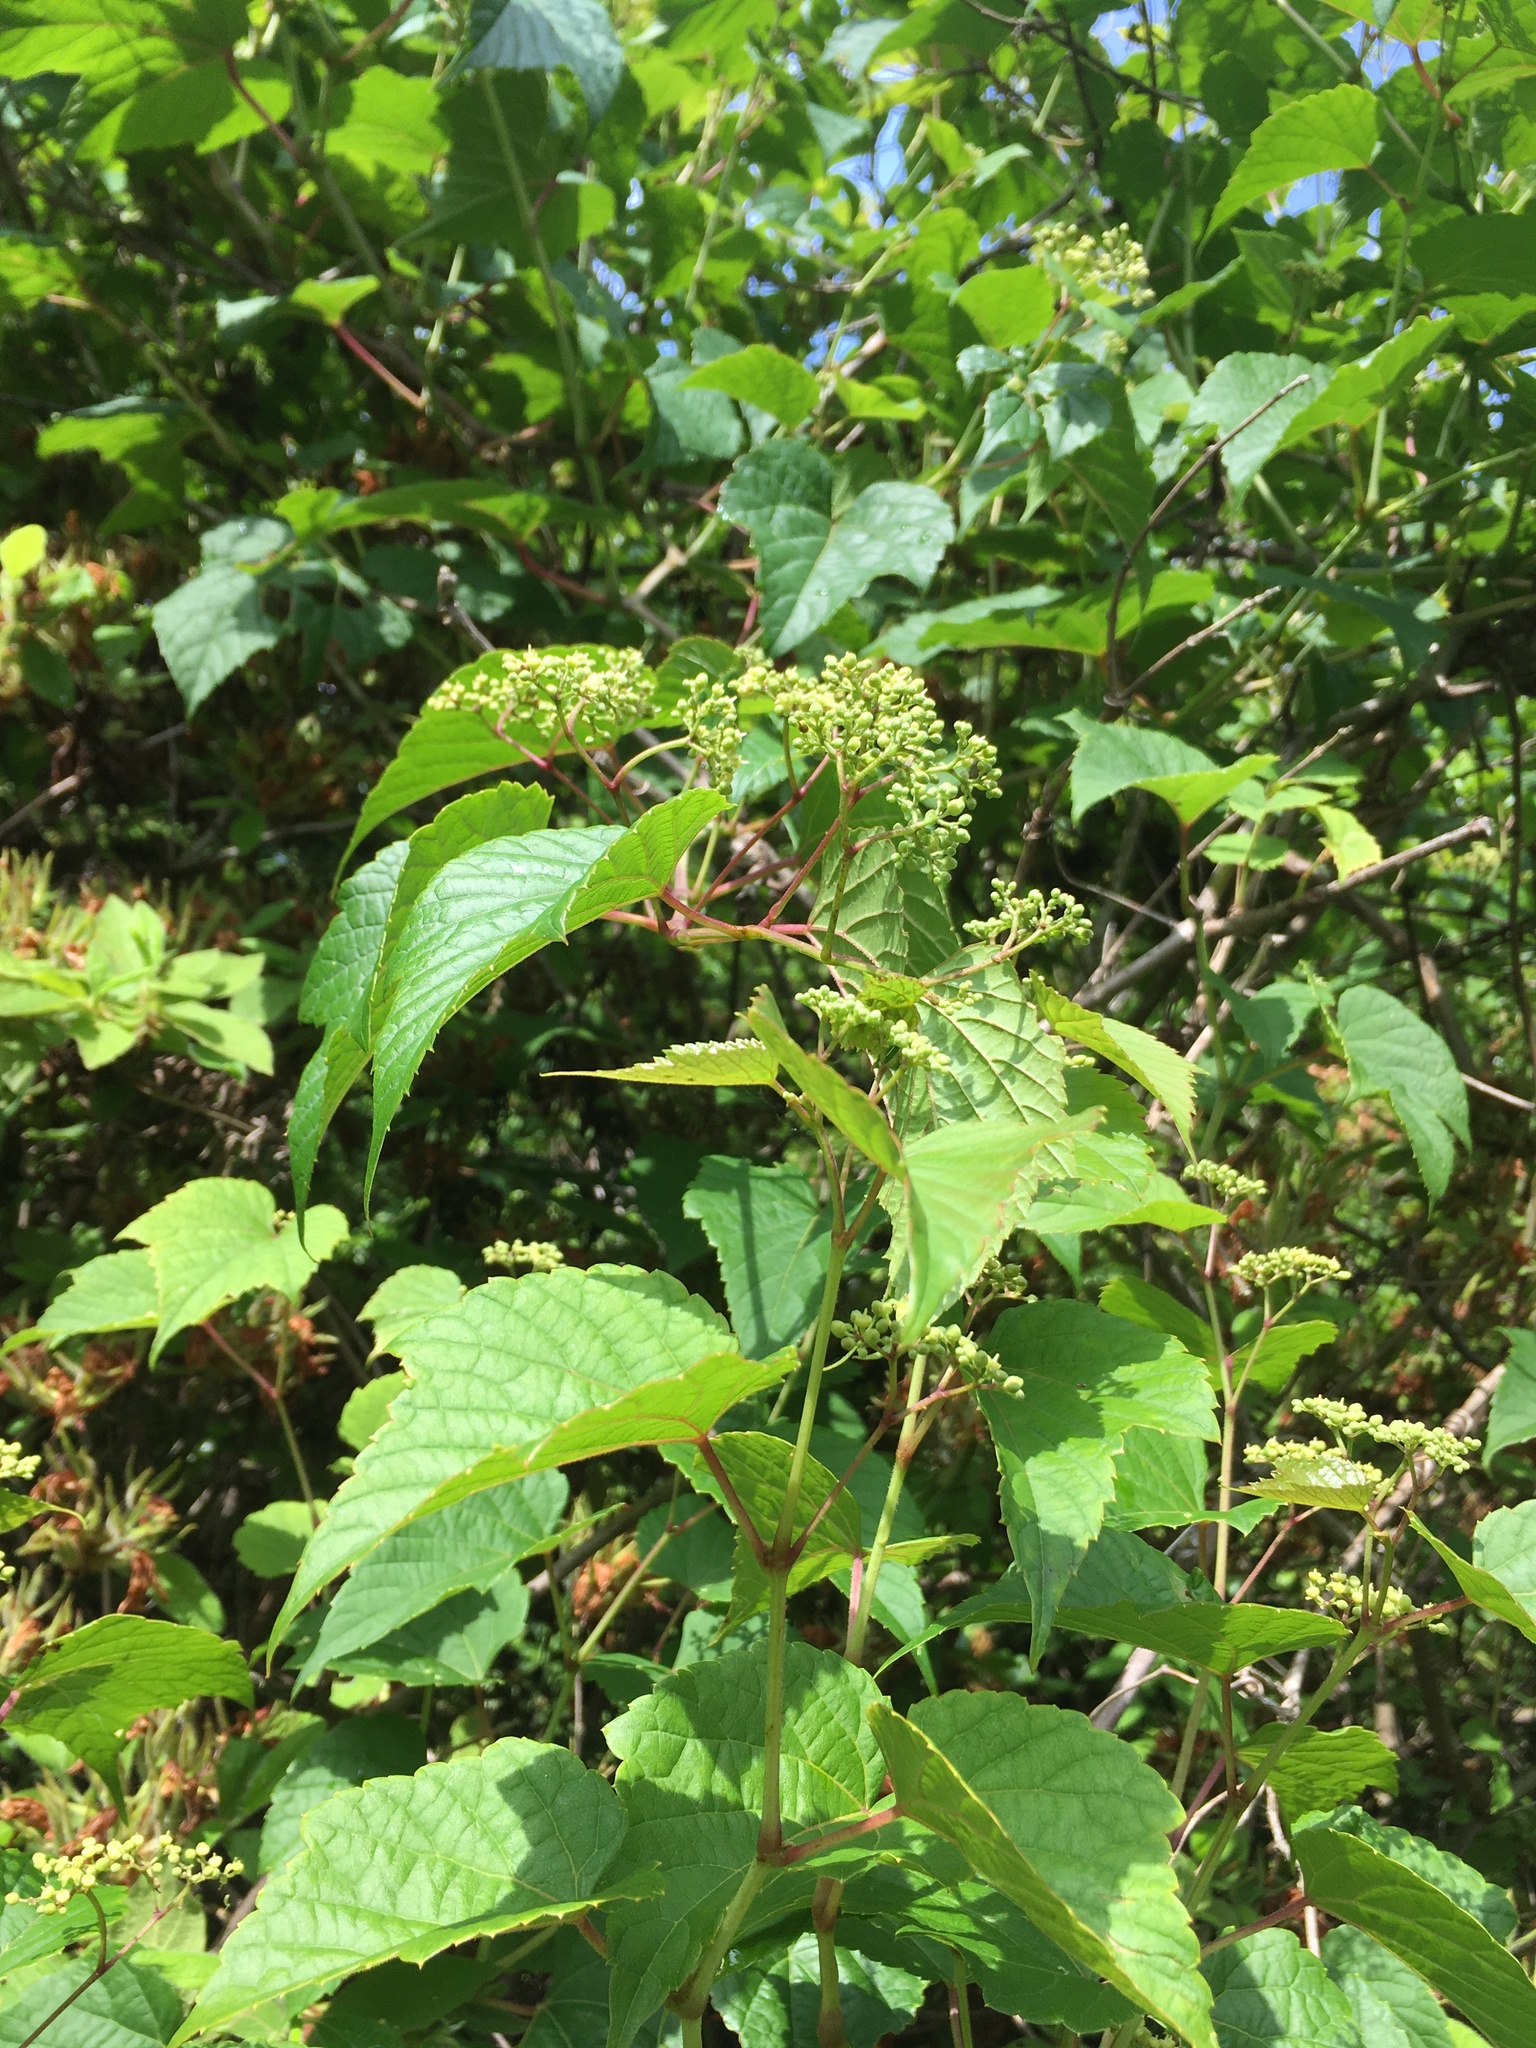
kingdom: Plantae
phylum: Tracheophyta
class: Magnoliopsida
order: Vitales
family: Vitaceae
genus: Ampelopsis
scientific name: Ampelopsis glandulosa
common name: Amur peppervine
